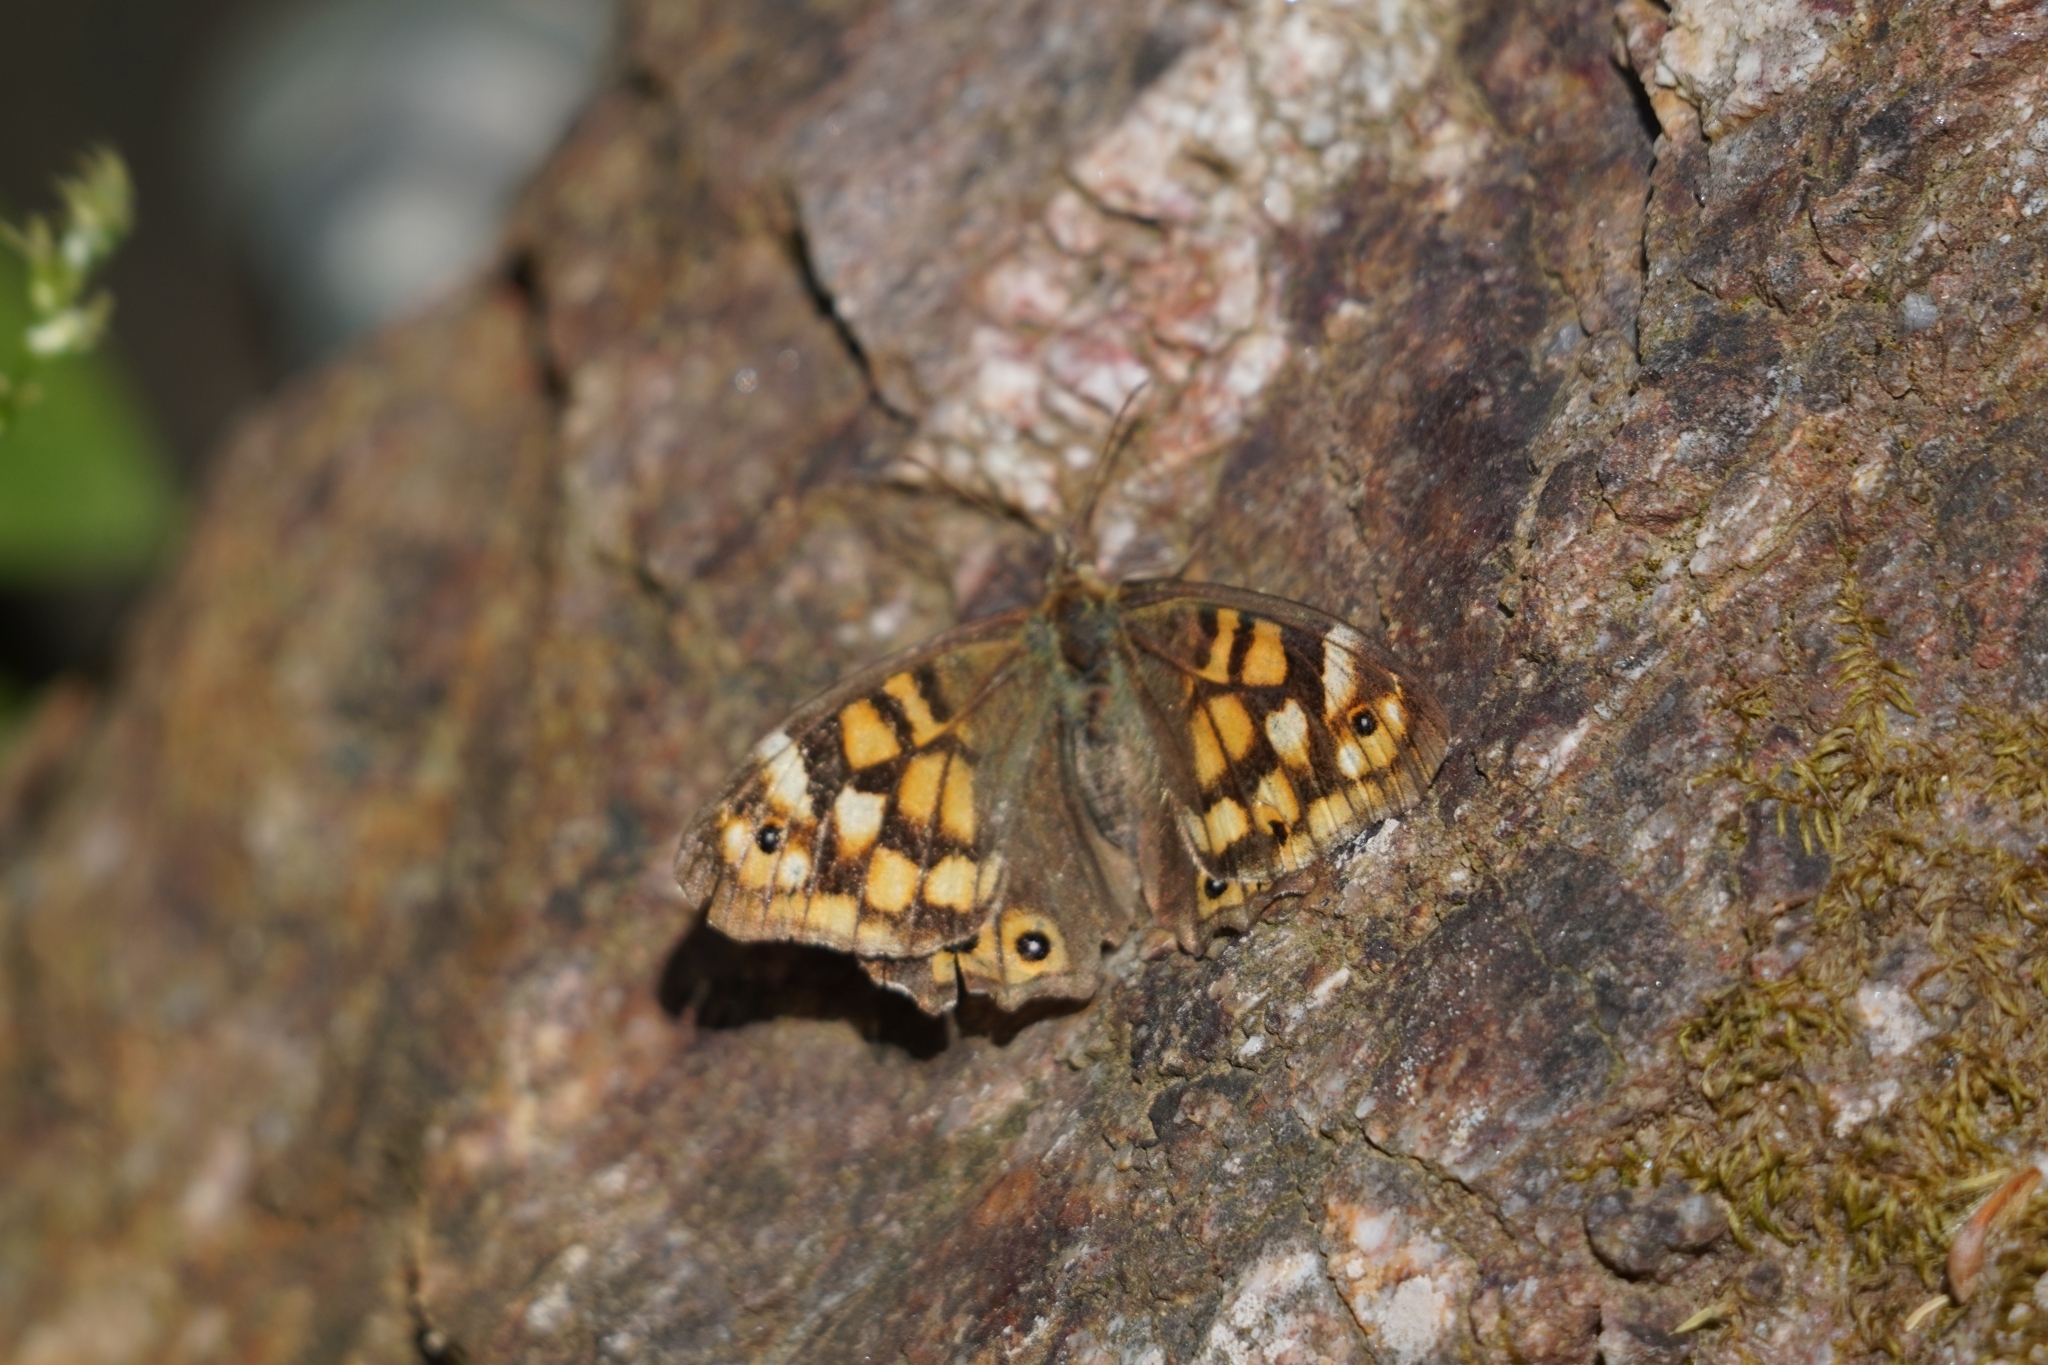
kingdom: Animalia
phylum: Arthropoda
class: Insecta
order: Lepidoptera
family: Nymphalidae
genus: Pararge
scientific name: Pararge aegeria
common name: Speckled wood
